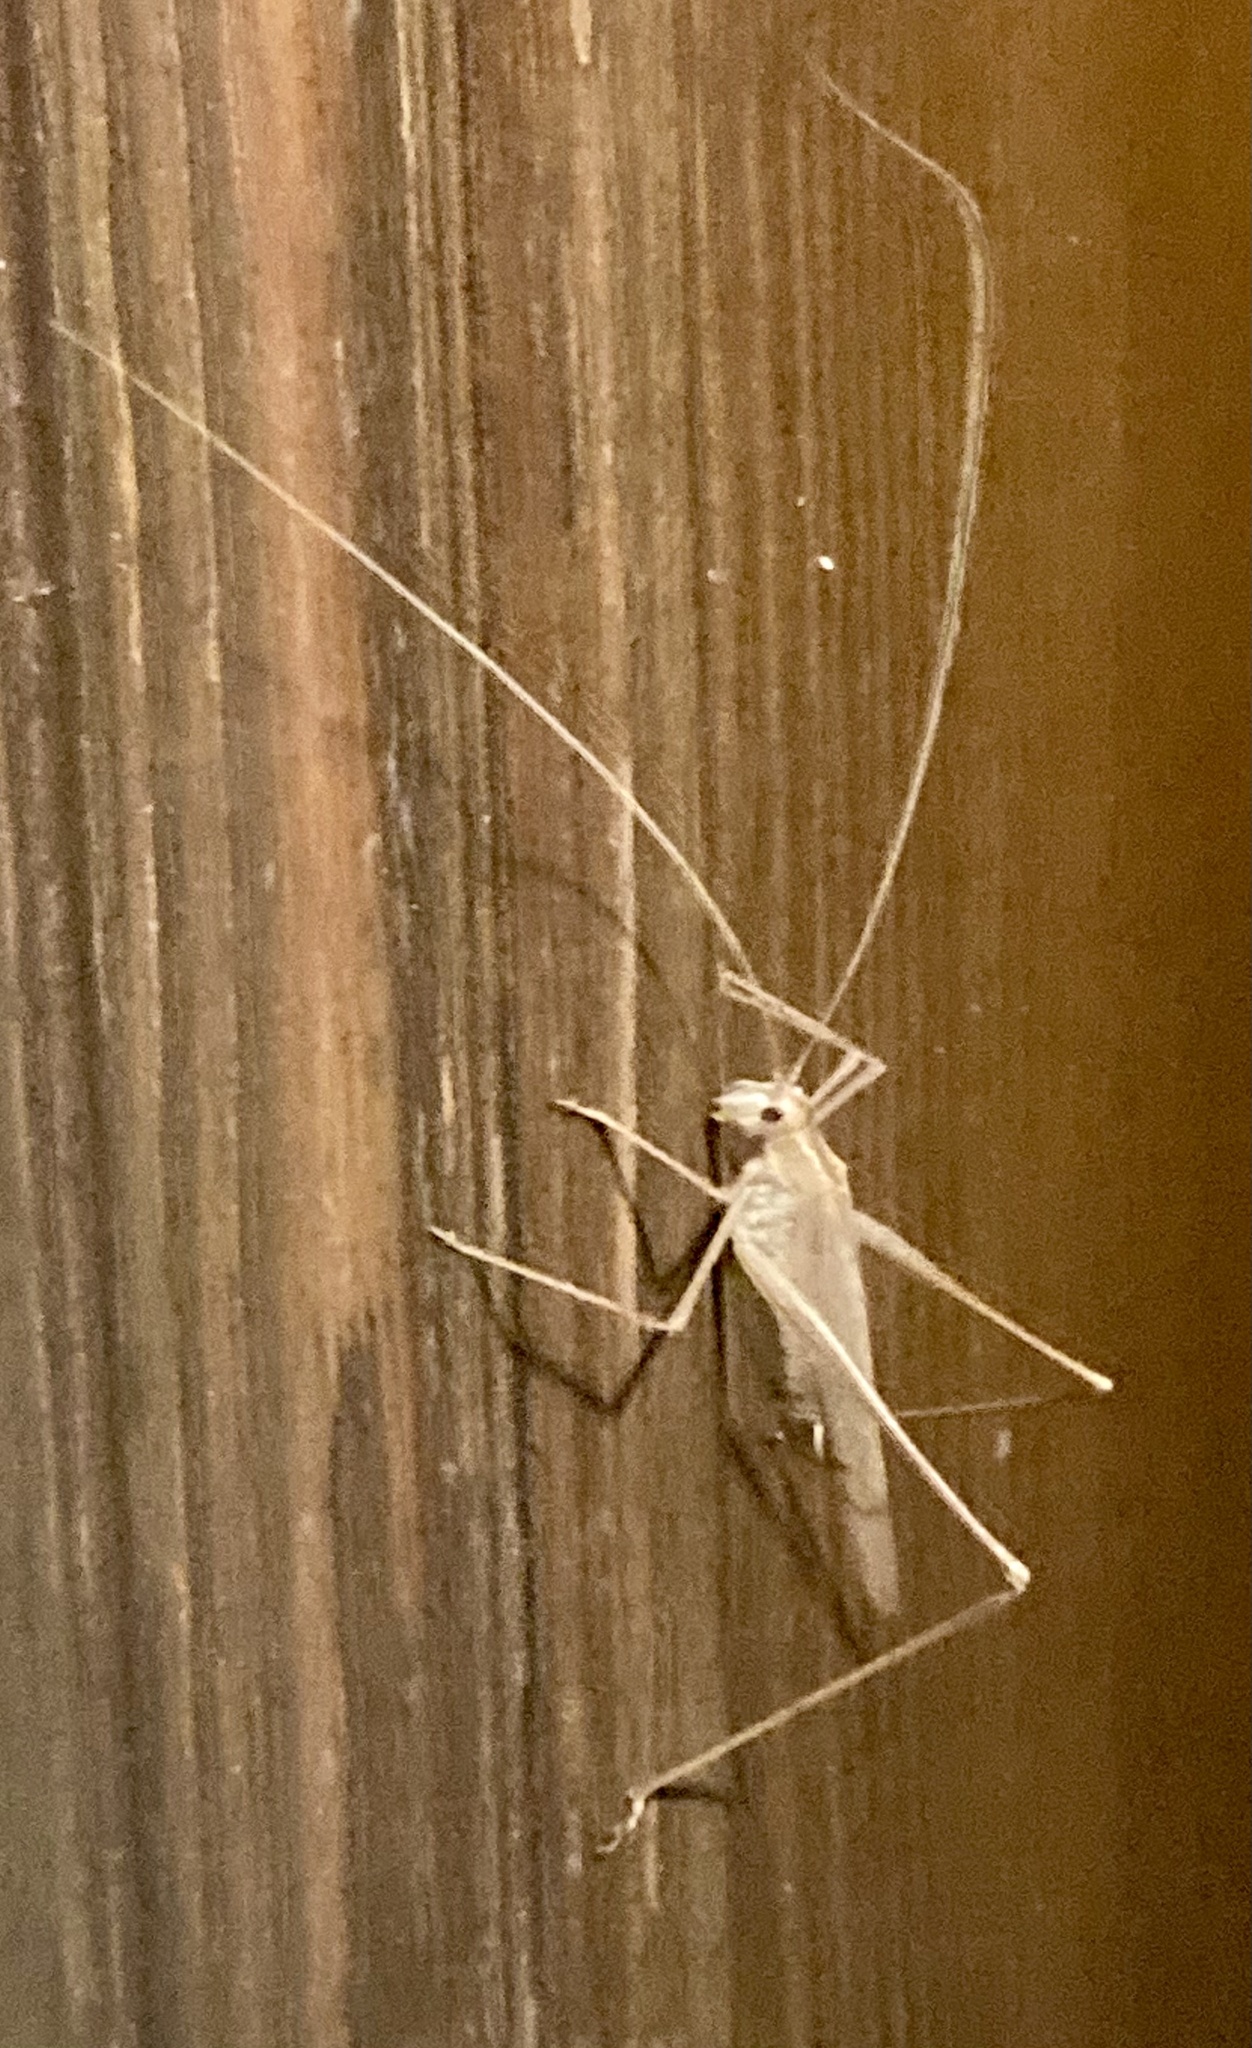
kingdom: Animalia
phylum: Arthropoda
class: Insecta
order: Orthoptera
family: Tettigoniidae
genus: Tylopsis
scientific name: Tylopsis lilifolia
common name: Lily bush-cricket
